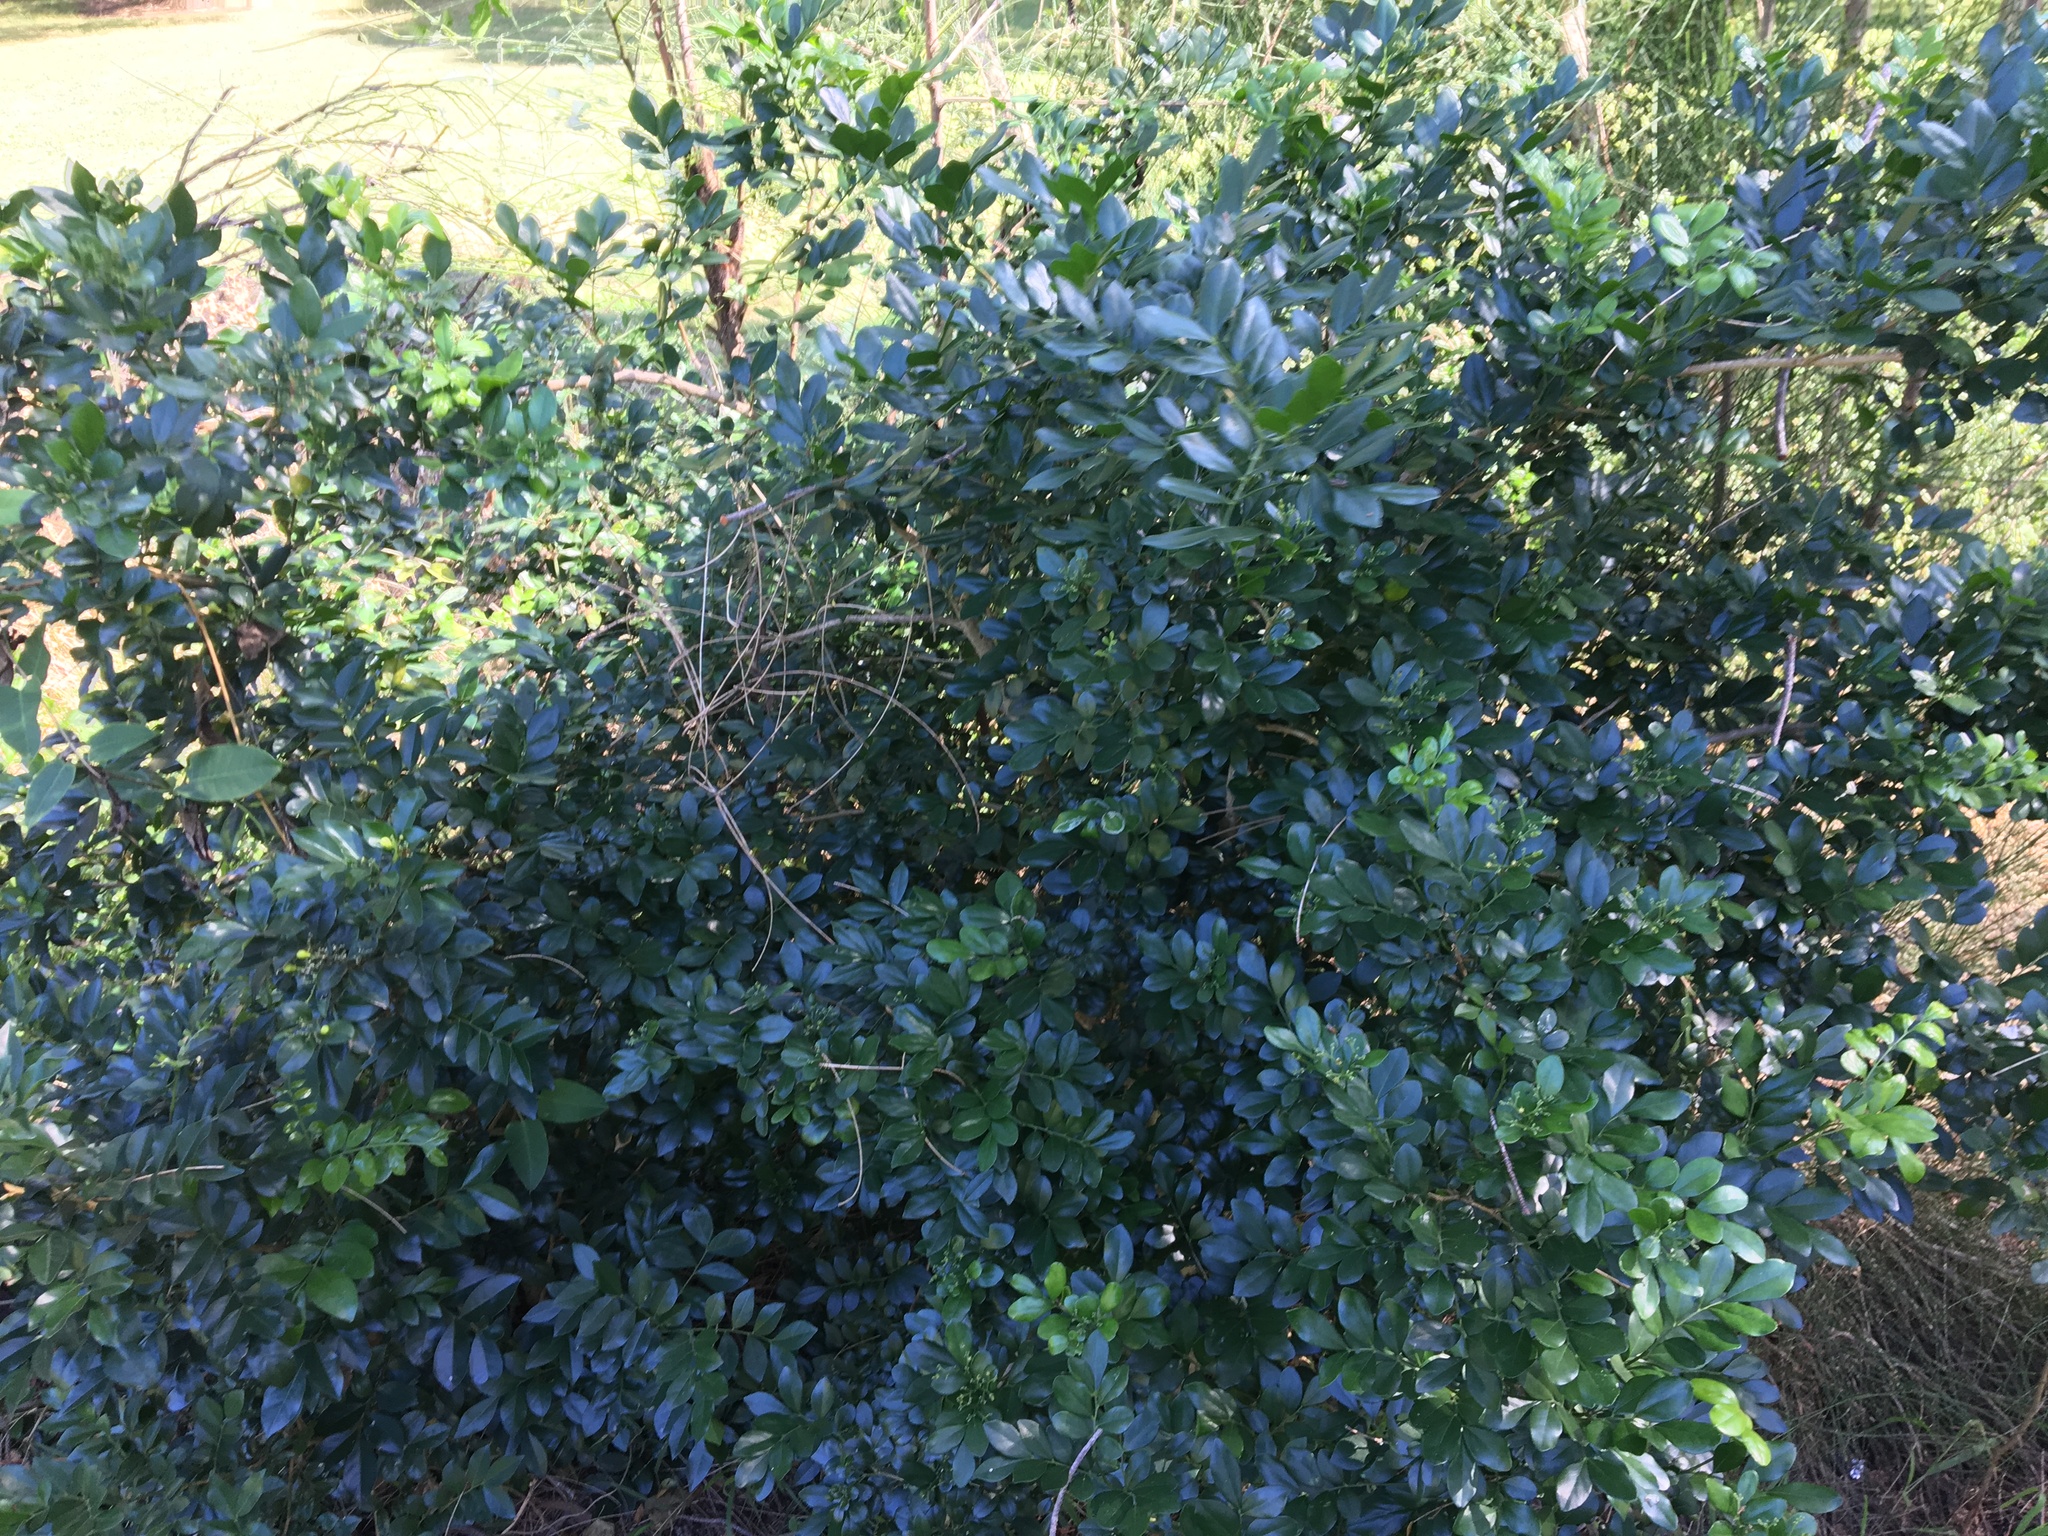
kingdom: Plantae
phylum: Tracheophyta
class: Magnoliopsida
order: Sapindales
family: Rutaceae
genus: Murraya
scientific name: Murraya paniculata
